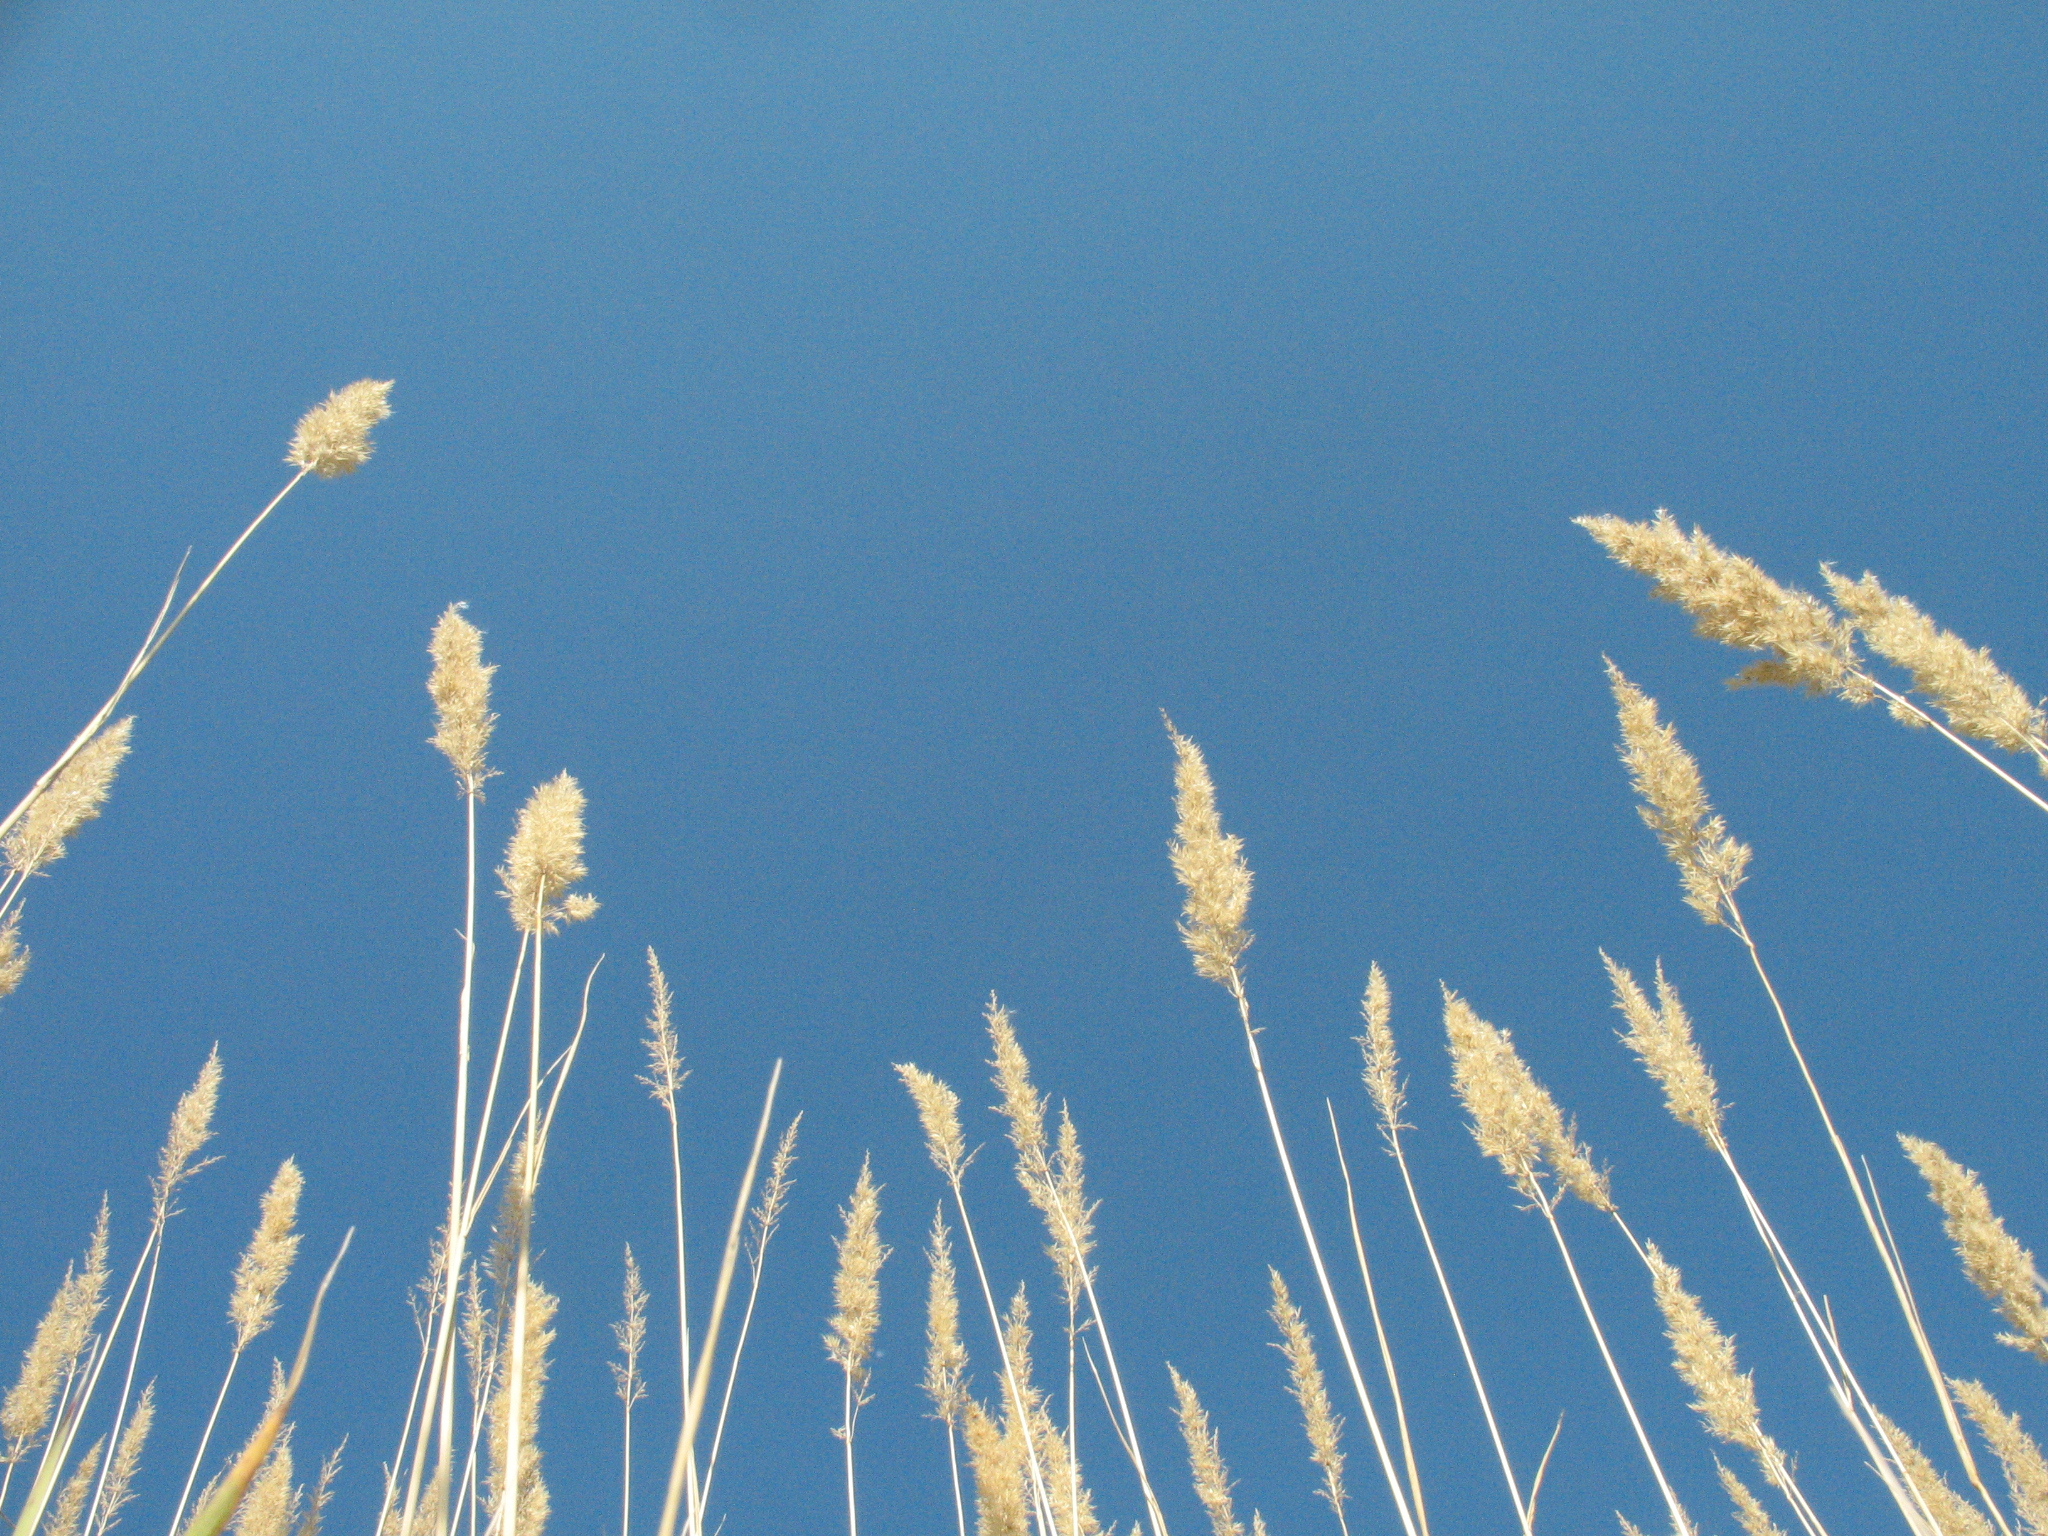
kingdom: Plantae
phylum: Tracheophyta
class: Liliopsida
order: Poales
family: Poaceae
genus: Calamagrostis
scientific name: Calamagrostis epigejos
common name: Wood small-reed
